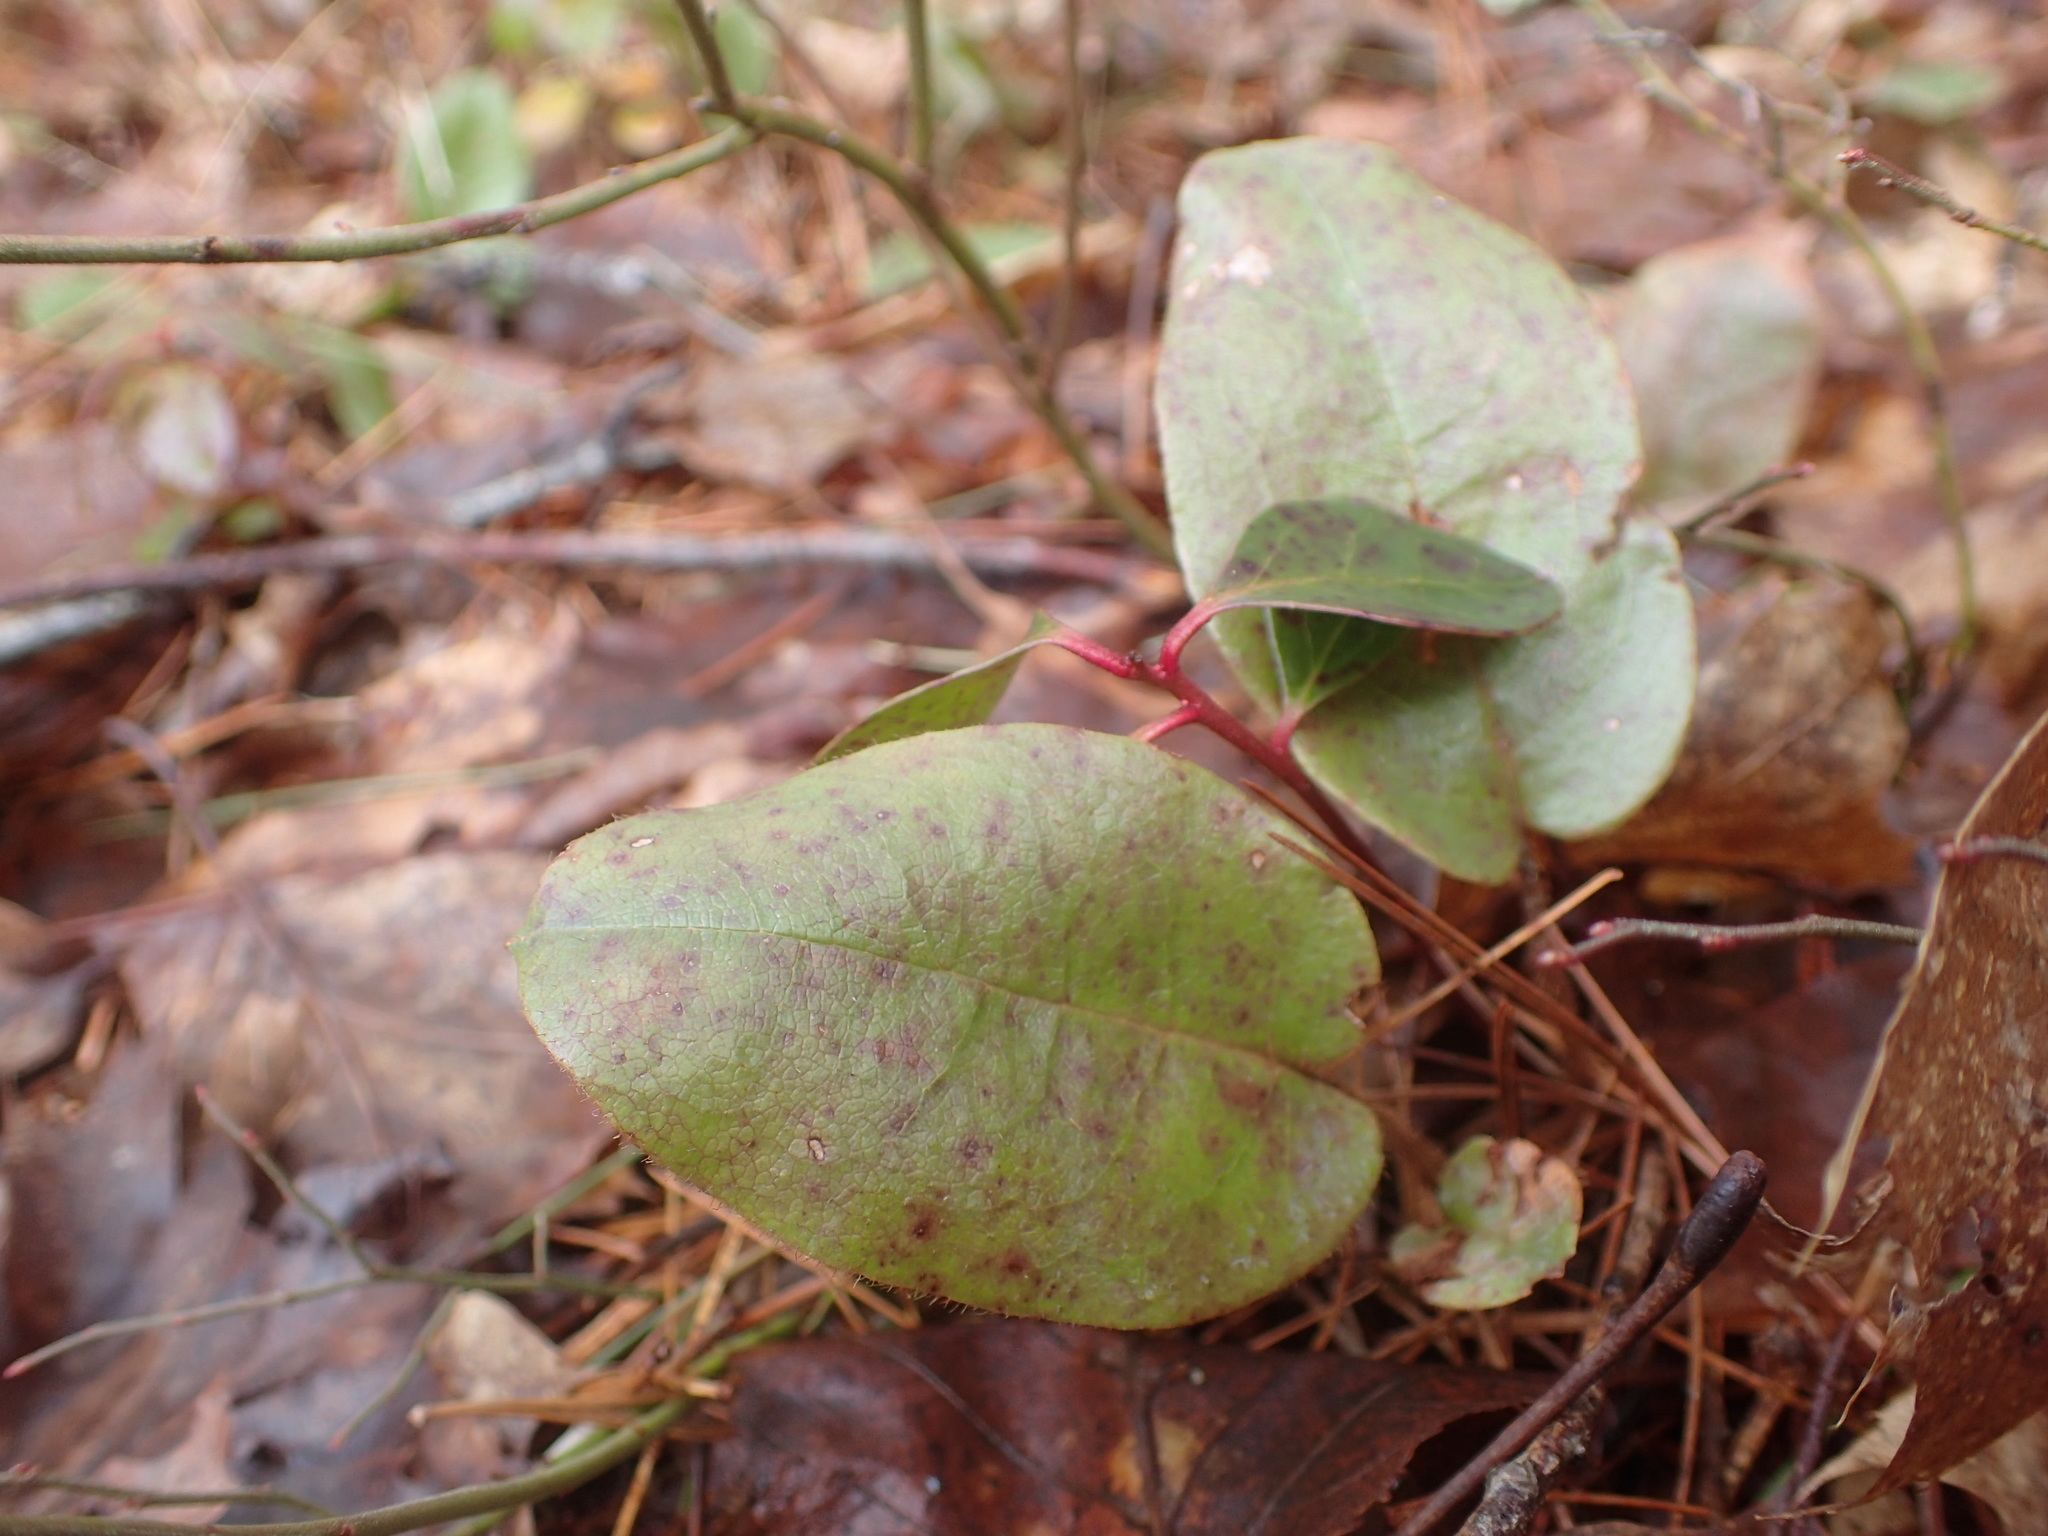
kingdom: Plantae
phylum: Tracheophyta
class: Magnoliopsida
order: Ericales
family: Ericaceae
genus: Epigaea
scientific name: Epigaea repens
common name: Gravelroot
